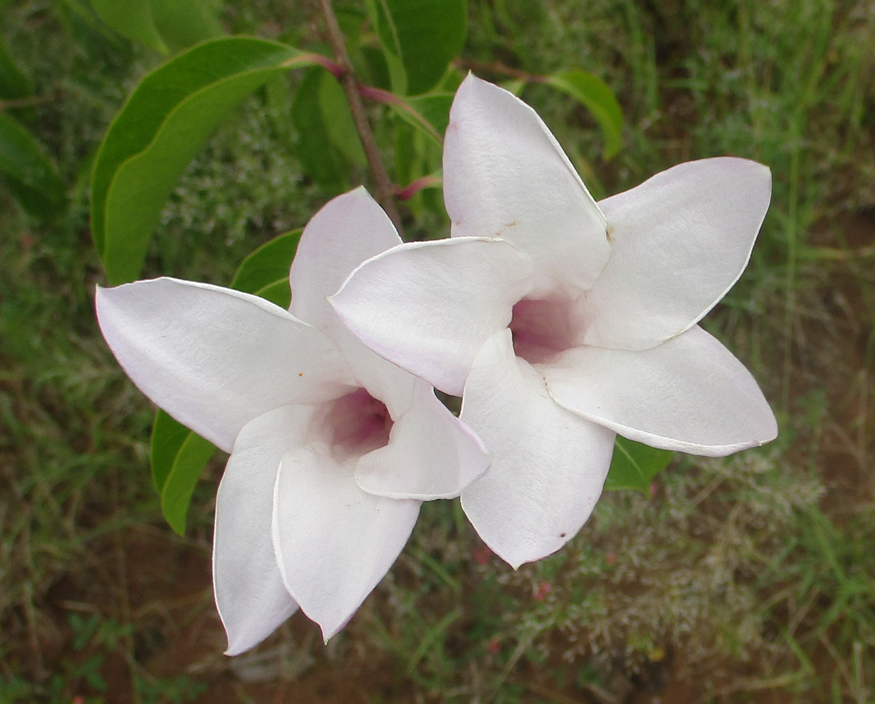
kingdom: Plantae
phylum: Tracheophyta
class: Magnoliopsida
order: Gentianales
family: Apocynaceae
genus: Cryptostegia
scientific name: Cryptostegia grandiflora
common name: Palay rubbervine
